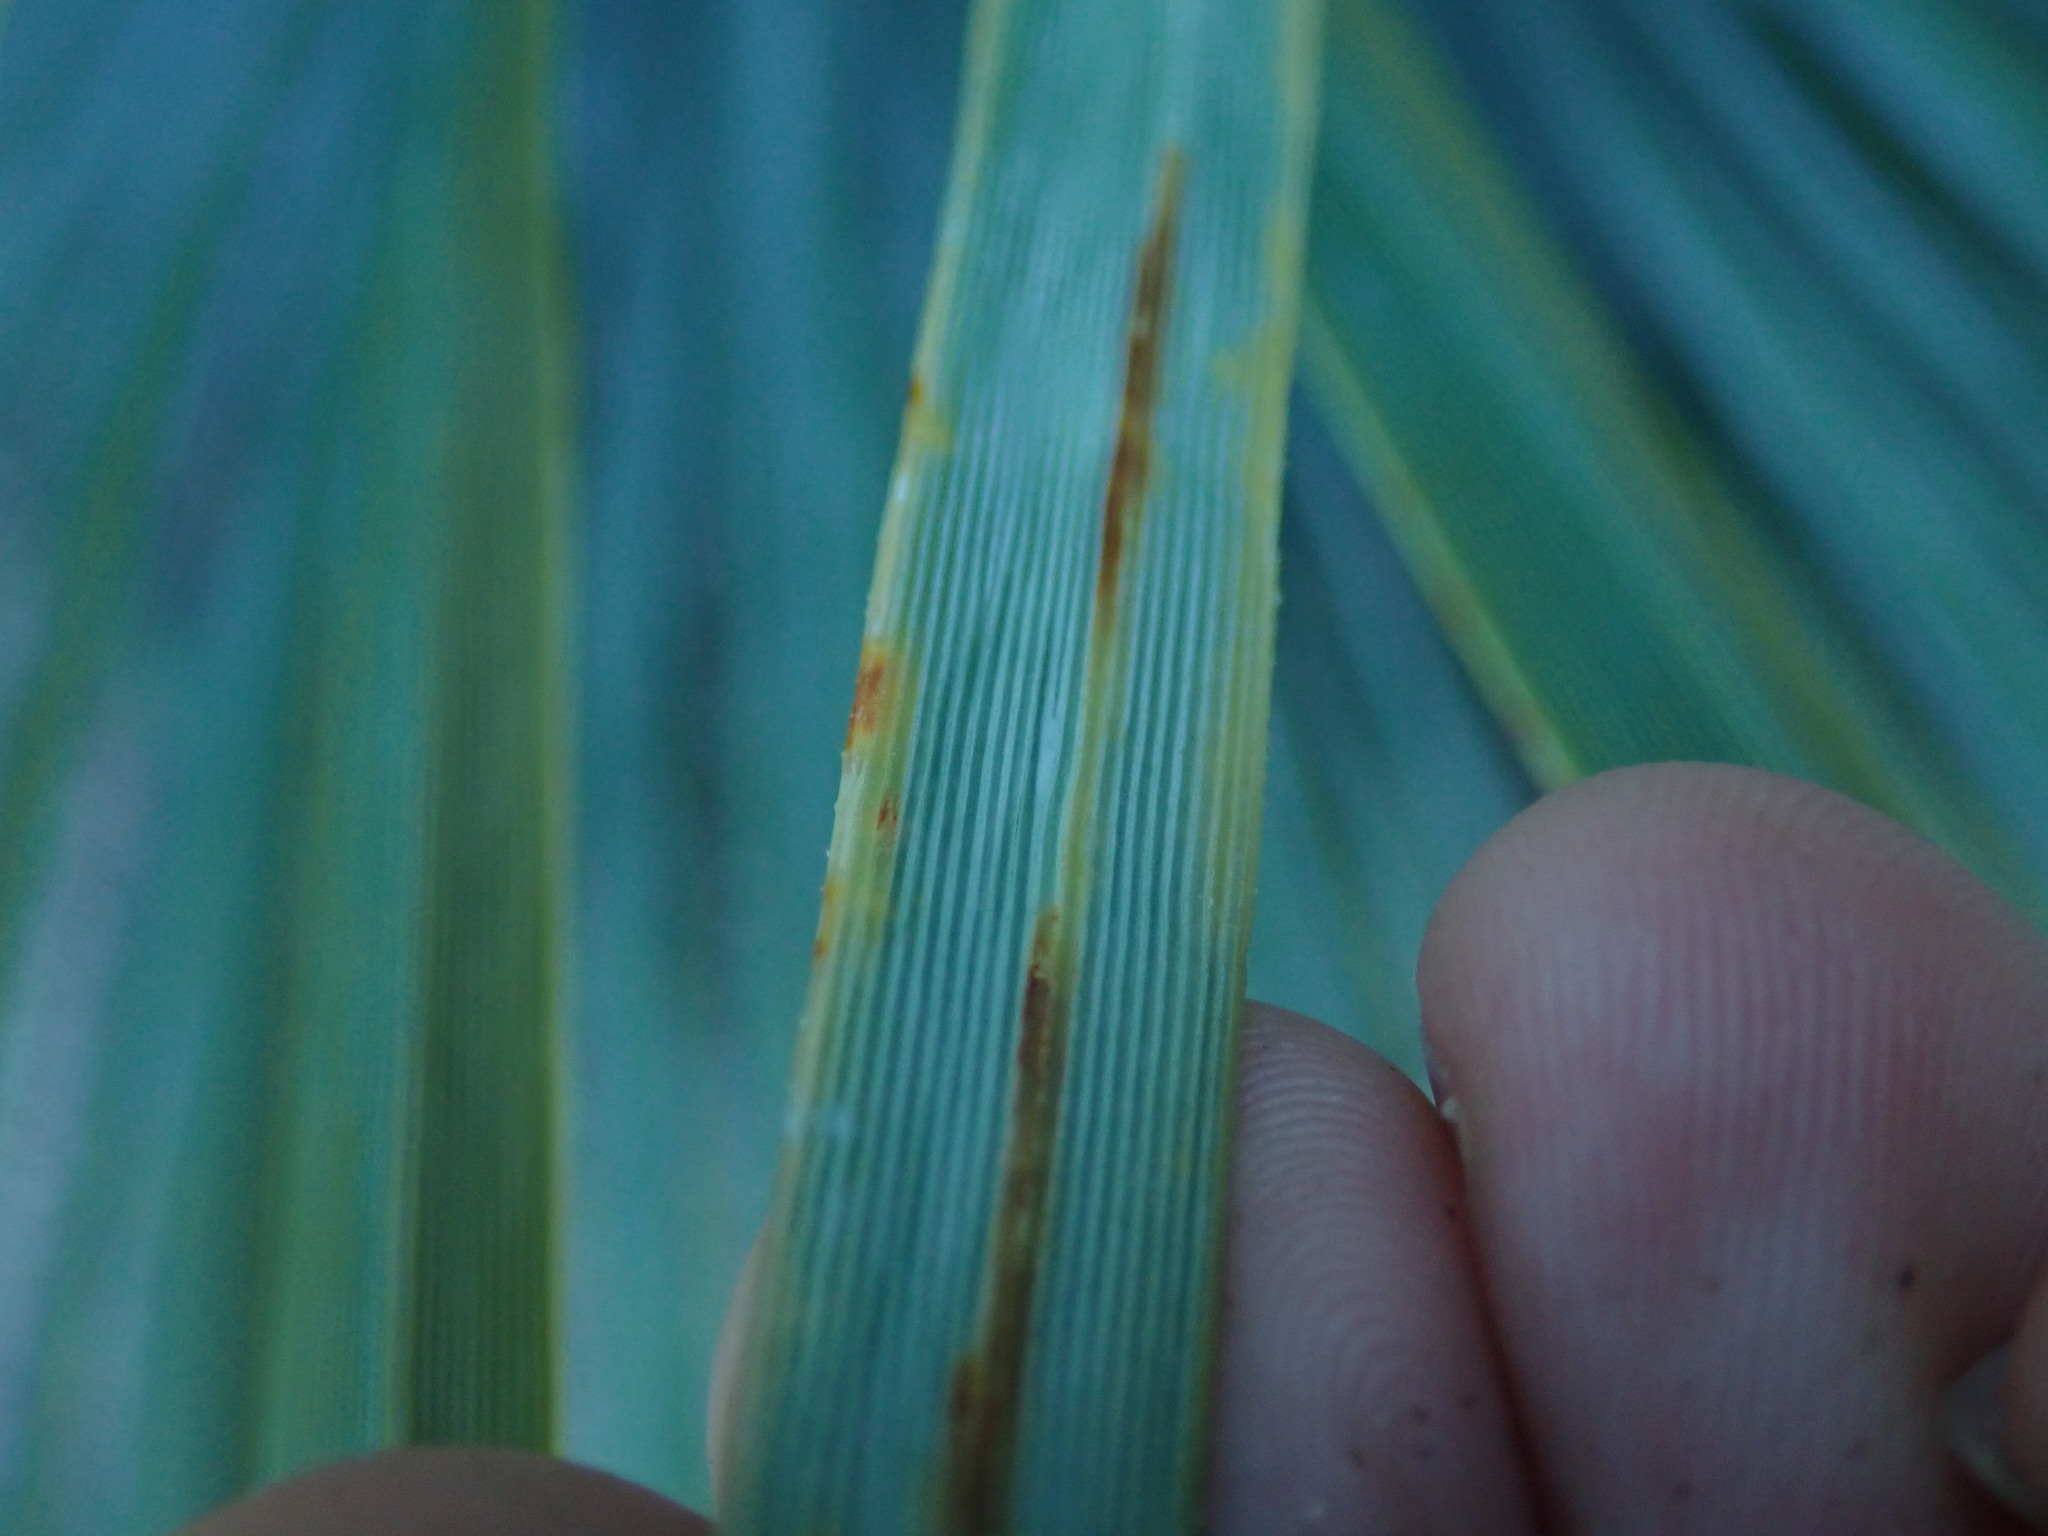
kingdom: Plantae
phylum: Tracheophyta
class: Liliopsida
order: Asparagales
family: Asparagaceae
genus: Hesperoyucca
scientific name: Hesperoyucca whipplei
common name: Our lord's-candle
